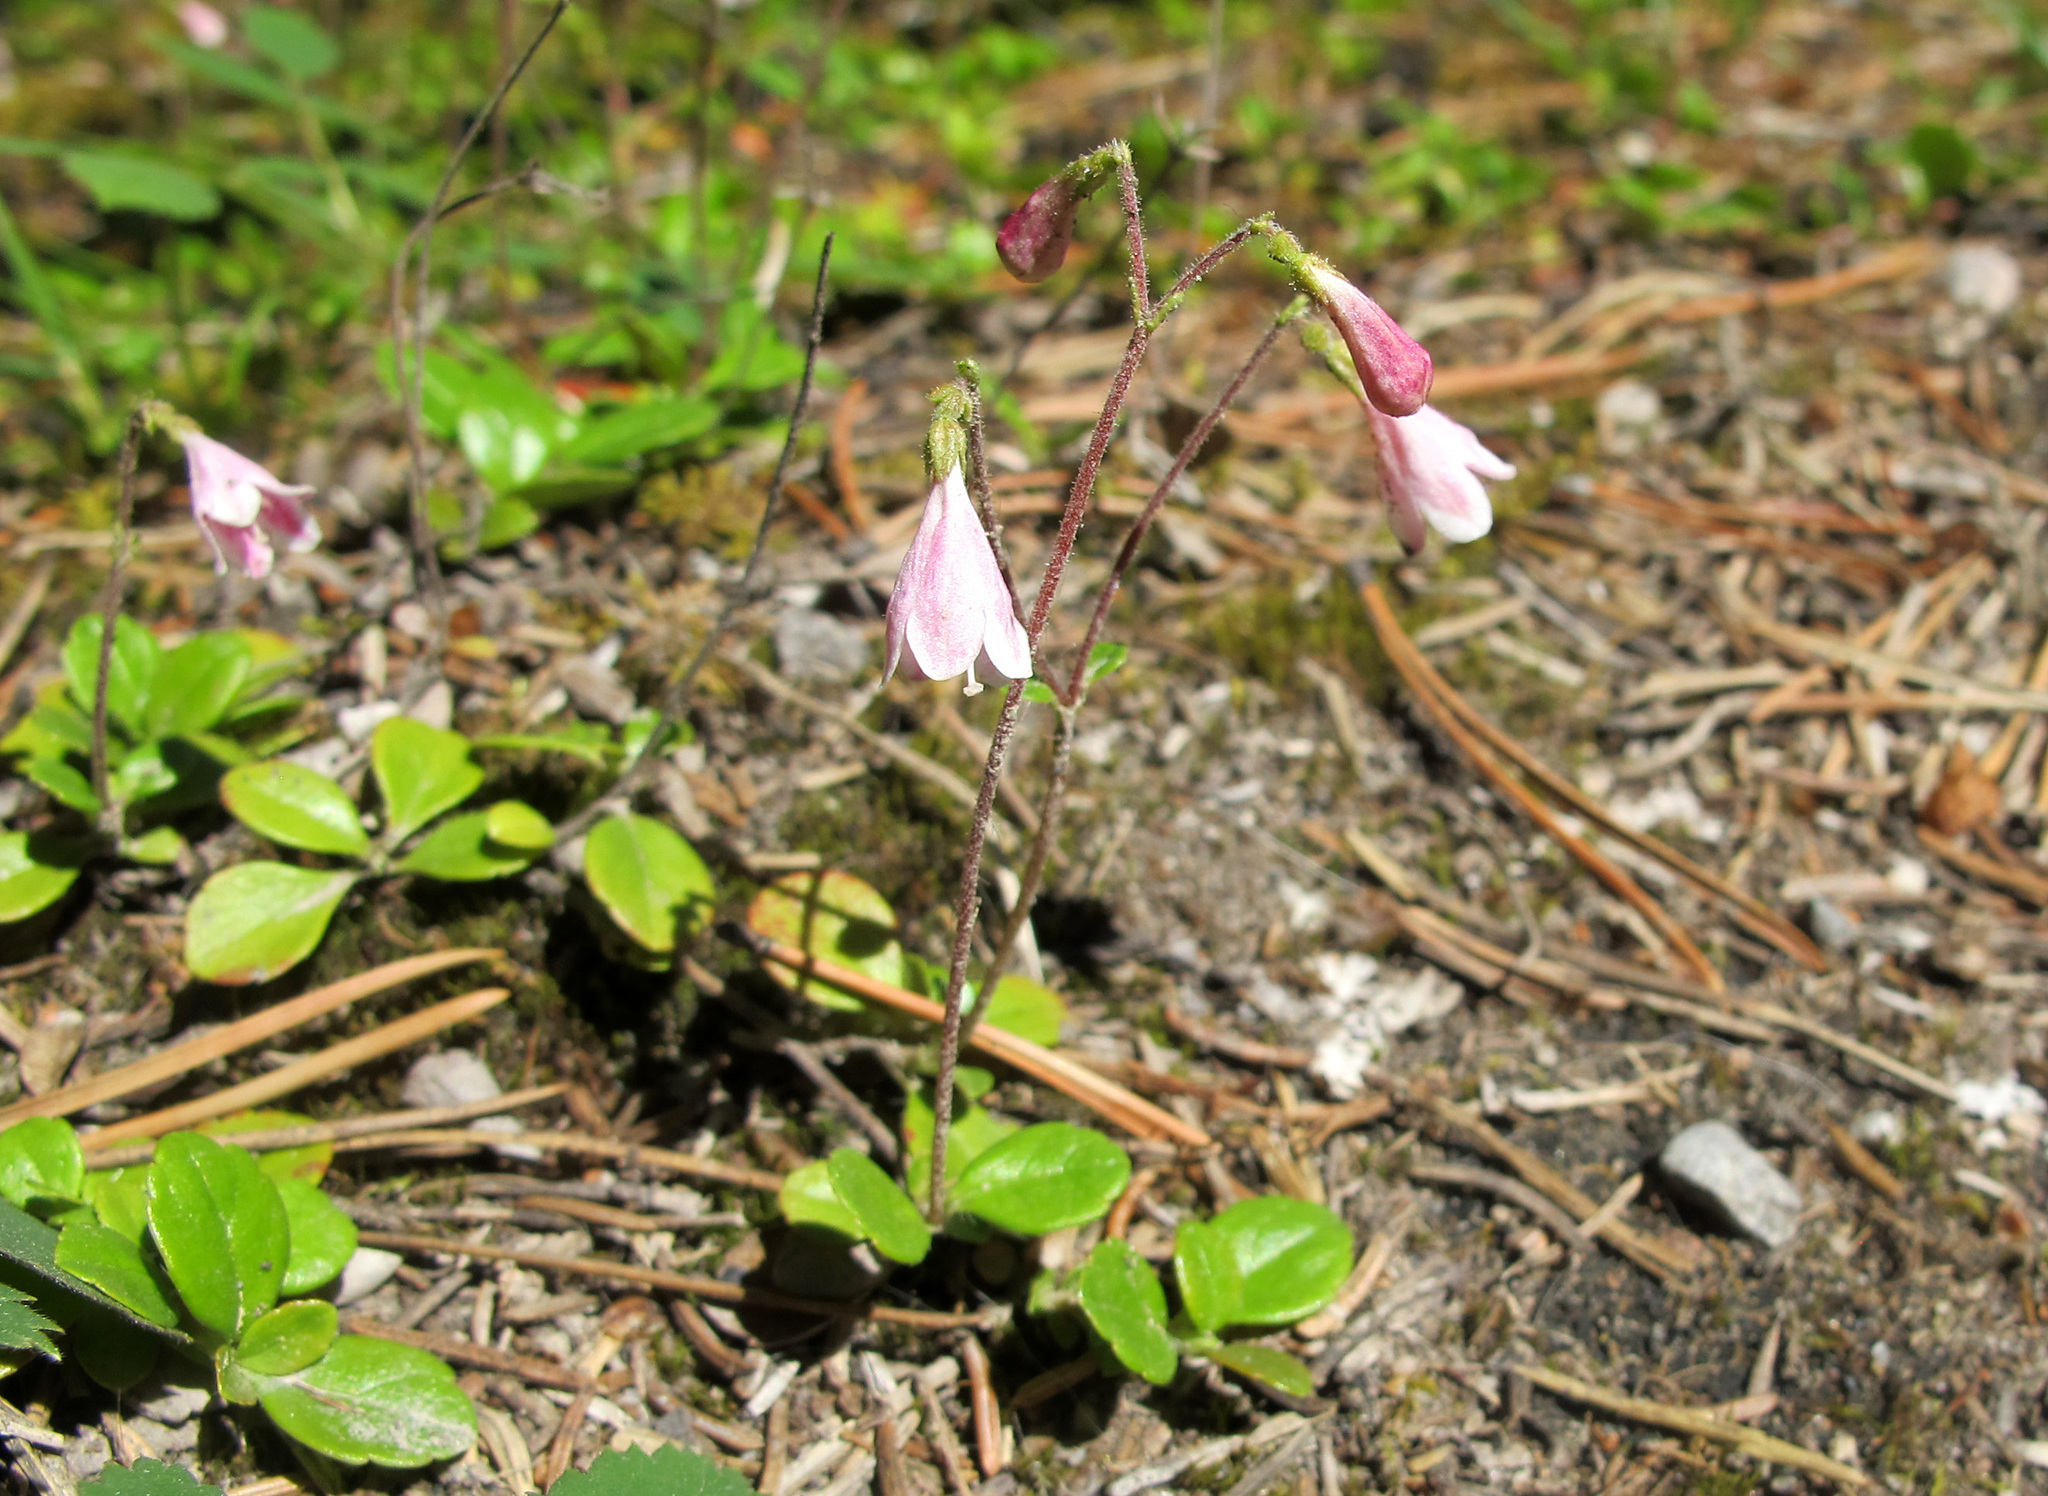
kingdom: Plantae
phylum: Tracheophyta
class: Magnoliopsida
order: Dipsacales
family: Caprifoliaceae
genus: Linnaea
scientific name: Linnaea borealis
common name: Twinflower
